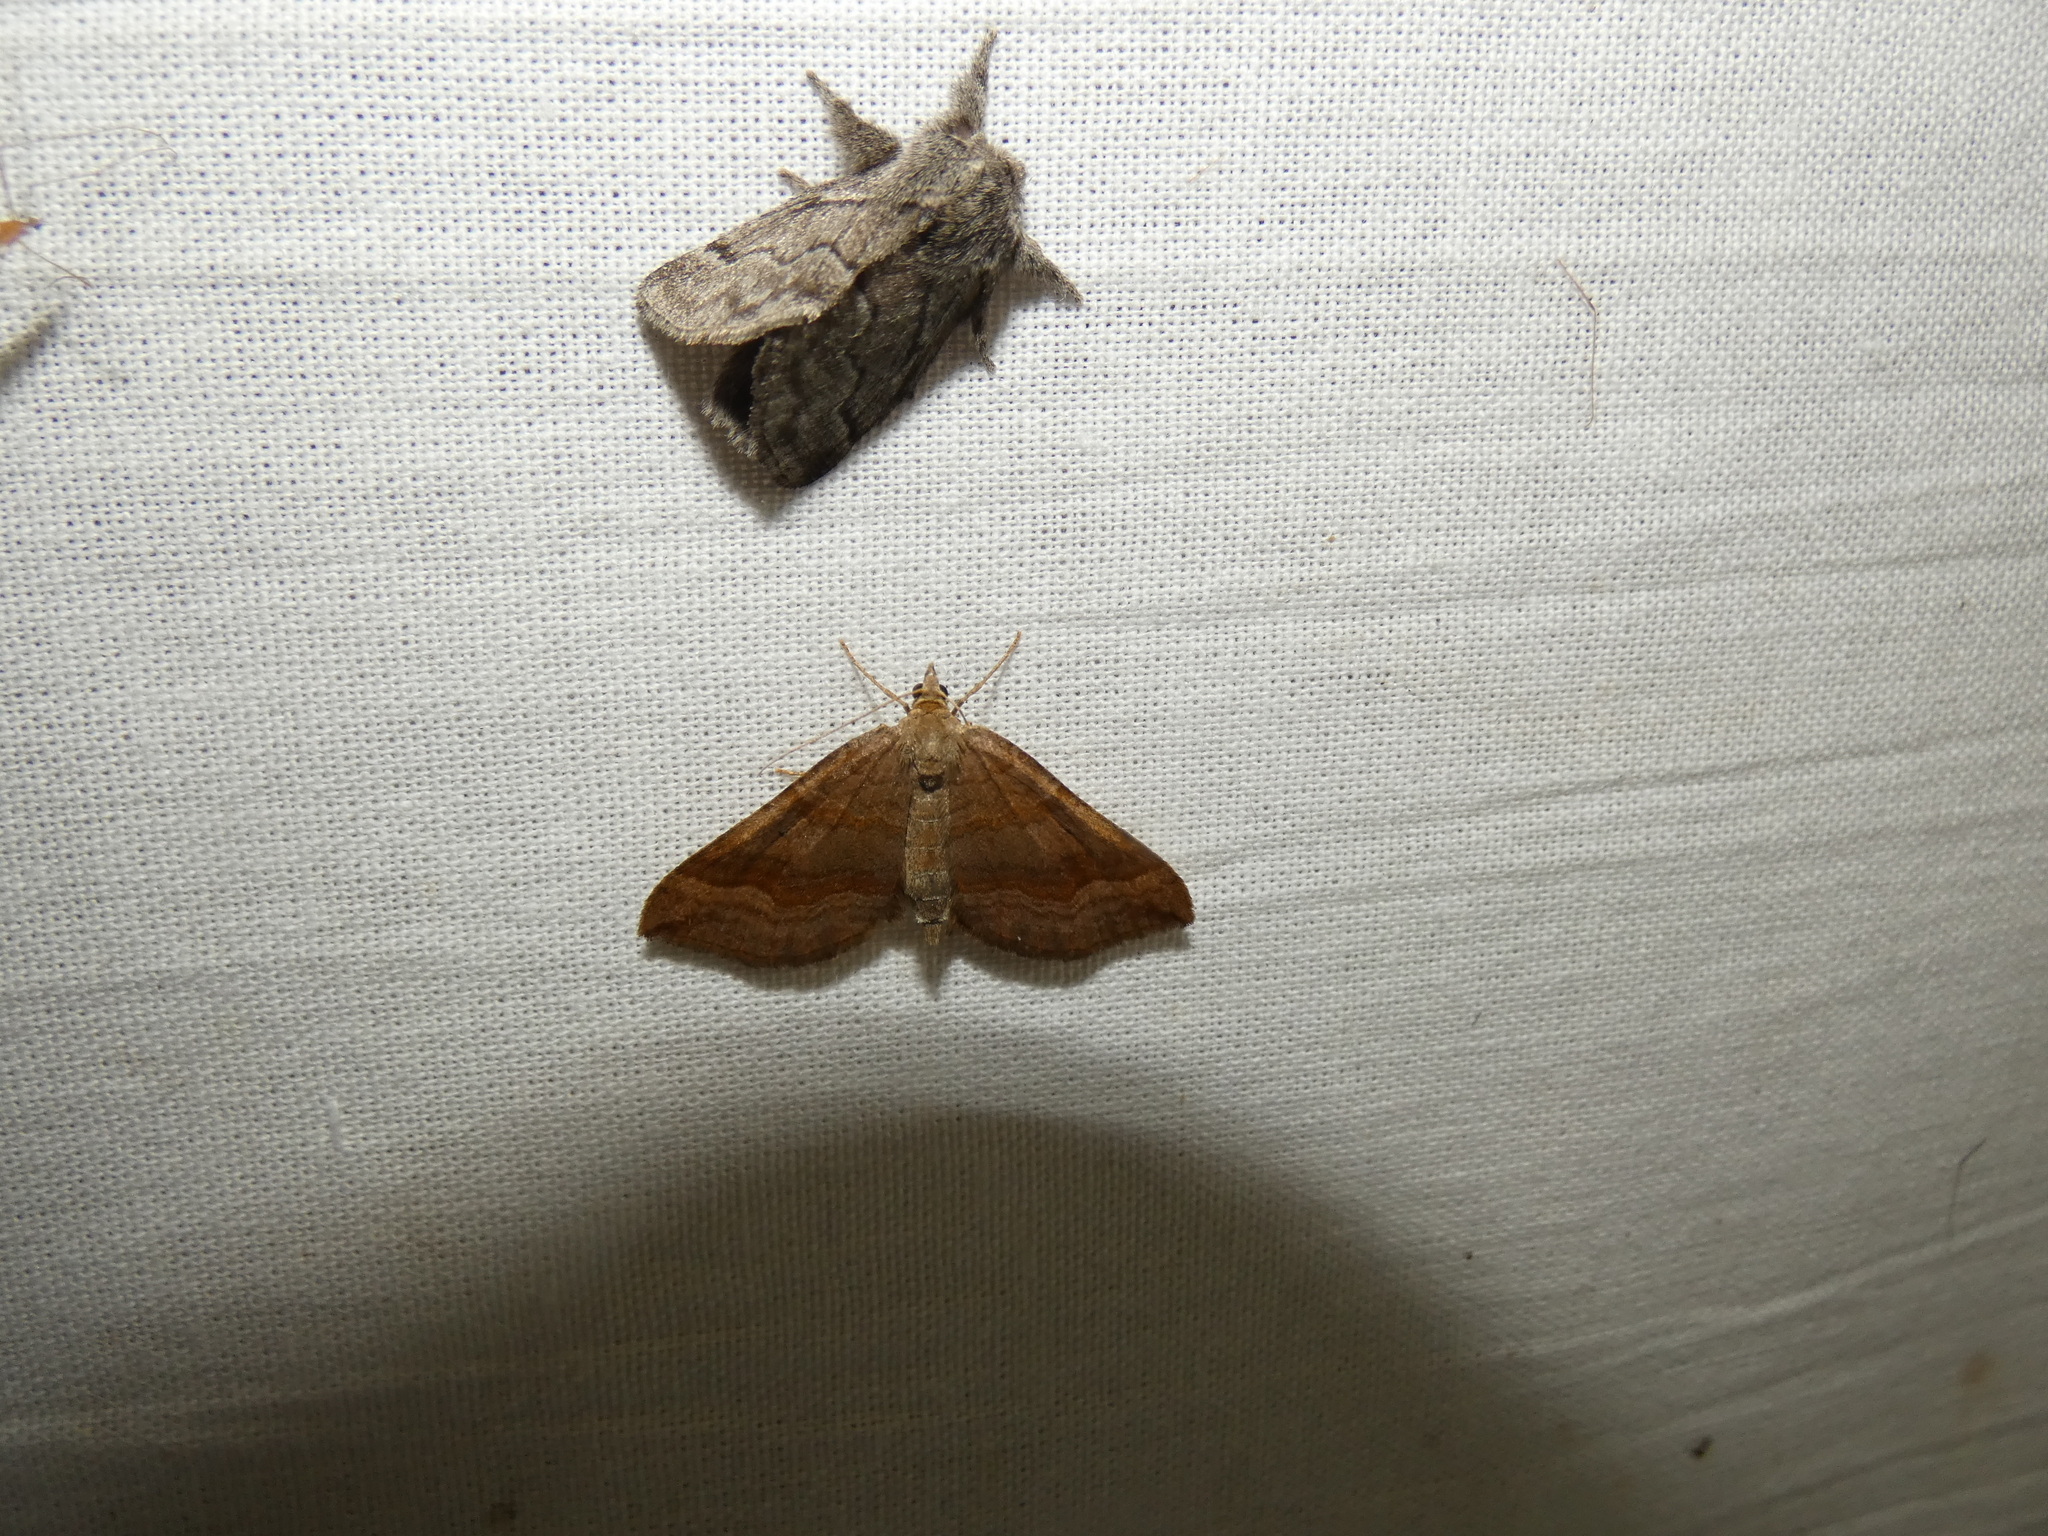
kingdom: Animalia
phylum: Arthropoda
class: Insecta
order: Lepidoptera
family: Geometridae
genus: Scotopteryx
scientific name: Scotopteryx chenopodiata
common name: Shaded broad-bar
